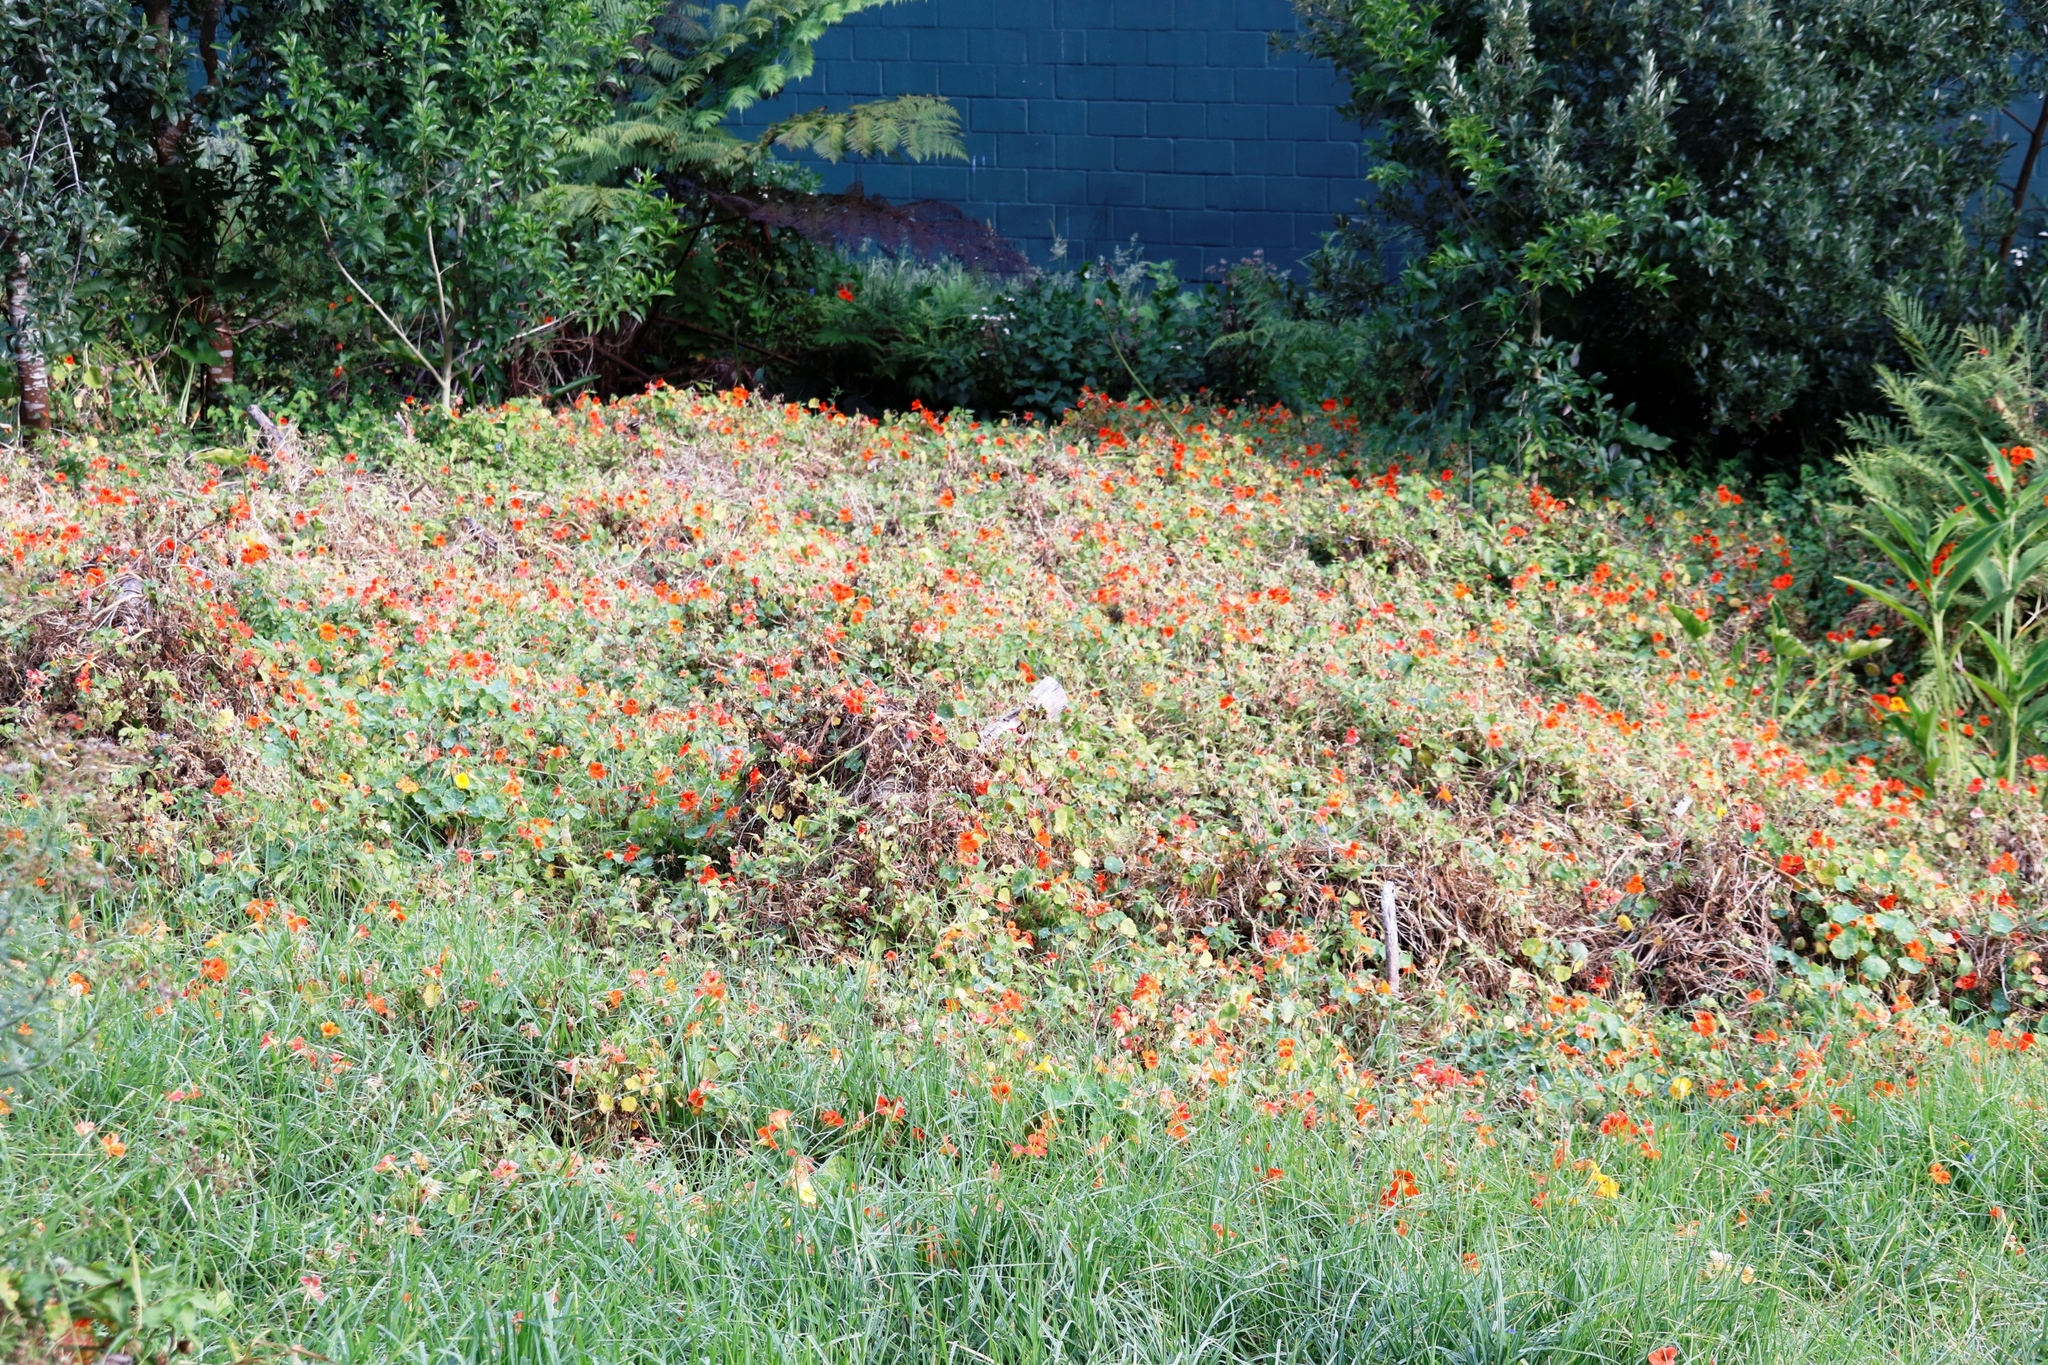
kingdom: Plantae
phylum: Tracheophyta
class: Magnoliopsida
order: Brassicales
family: Tropaeolaceae
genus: Tropaeolum
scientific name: Tropaeolum majus
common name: Nasturtium
